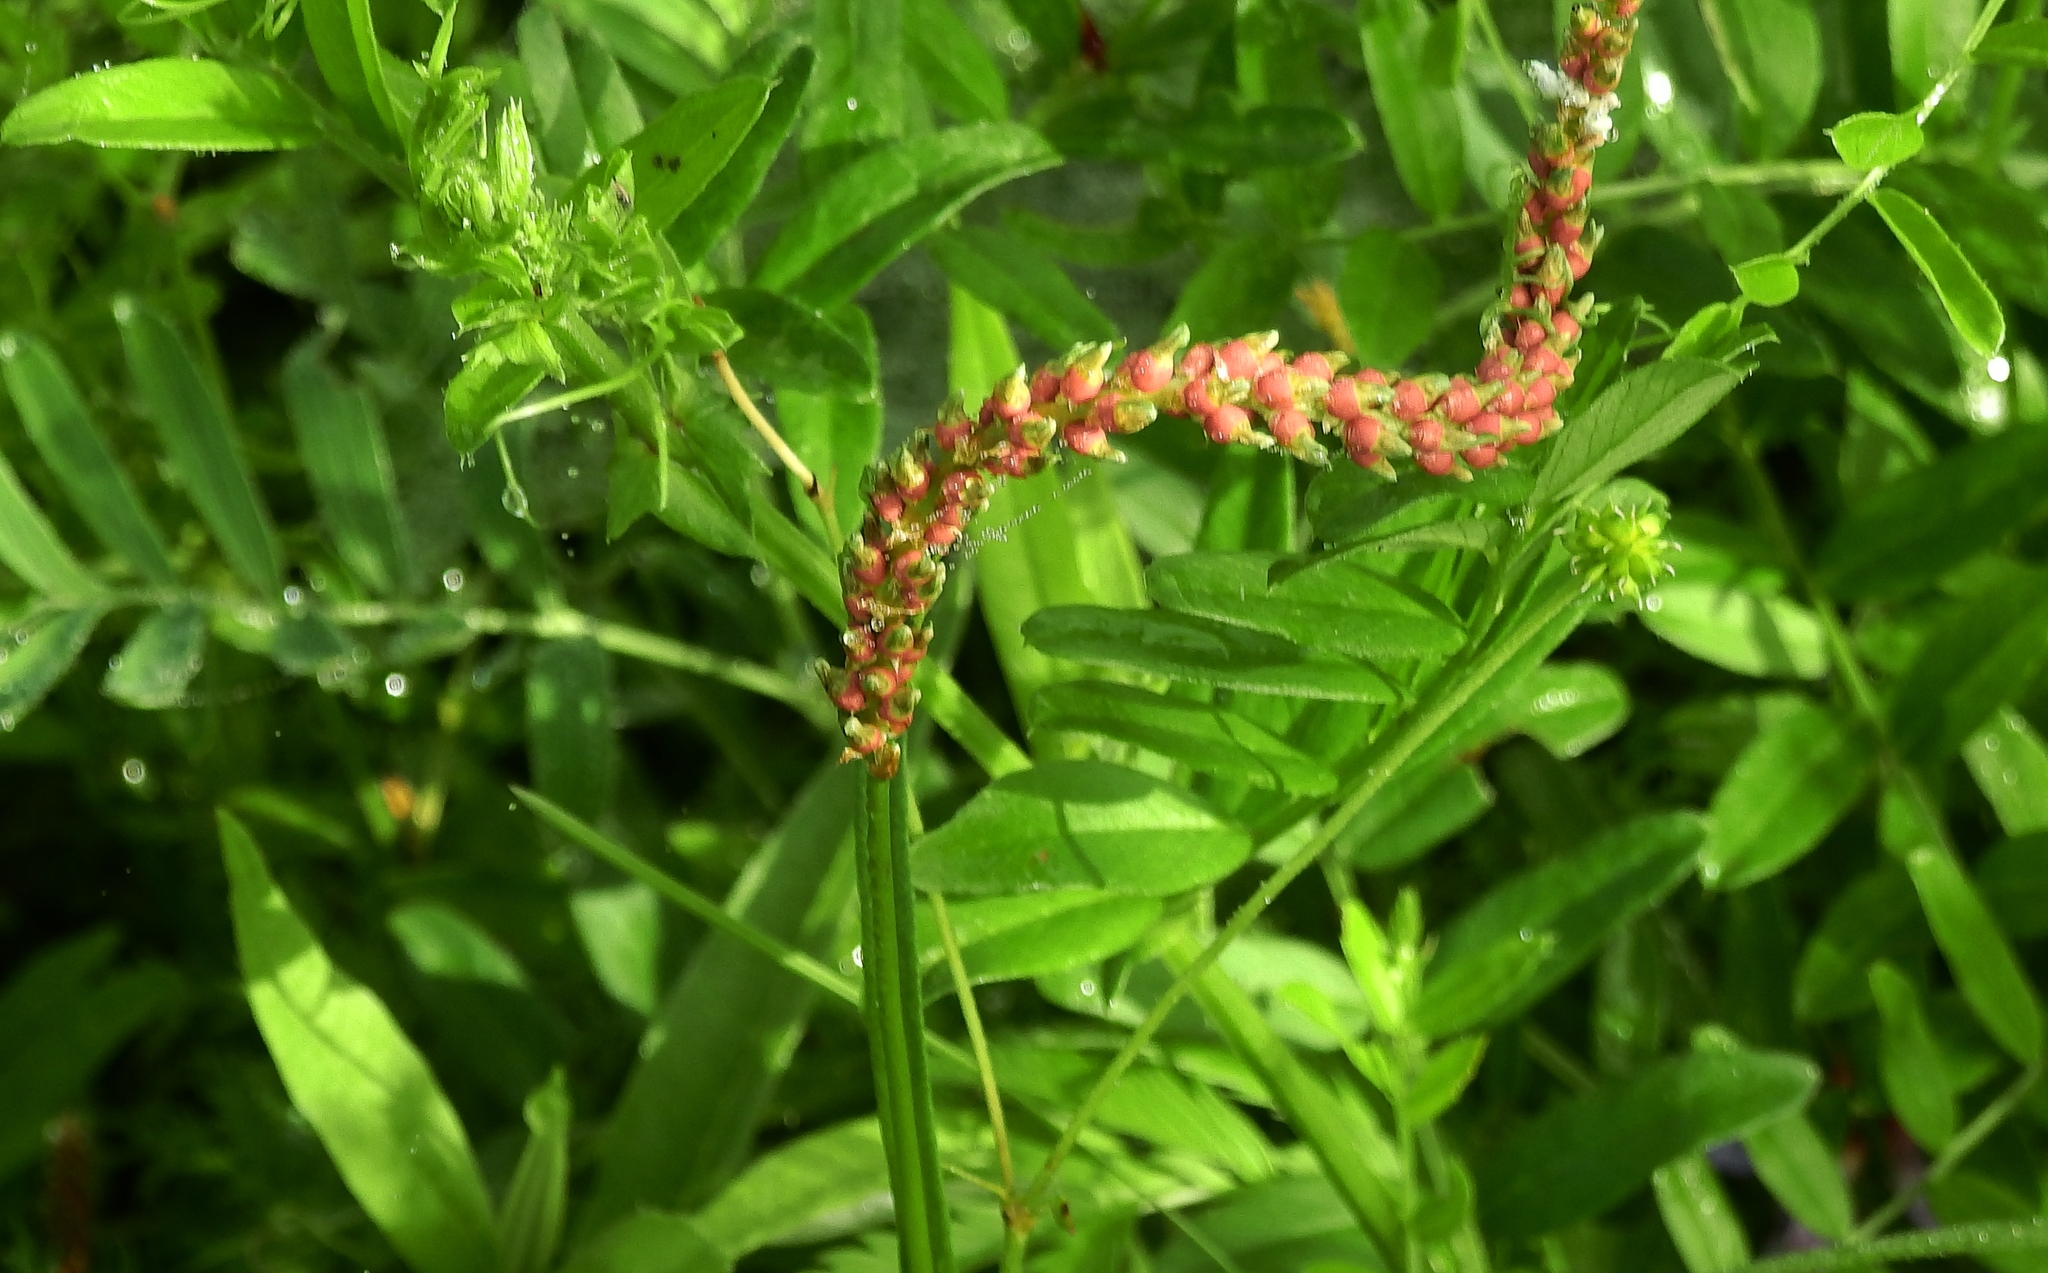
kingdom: Plantae
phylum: Tracheophyta
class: Magnoliopsida
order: Caryophyllales
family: Polygonaceae
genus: Bistorta
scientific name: Bistorta vivipara
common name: Alpine bistort
